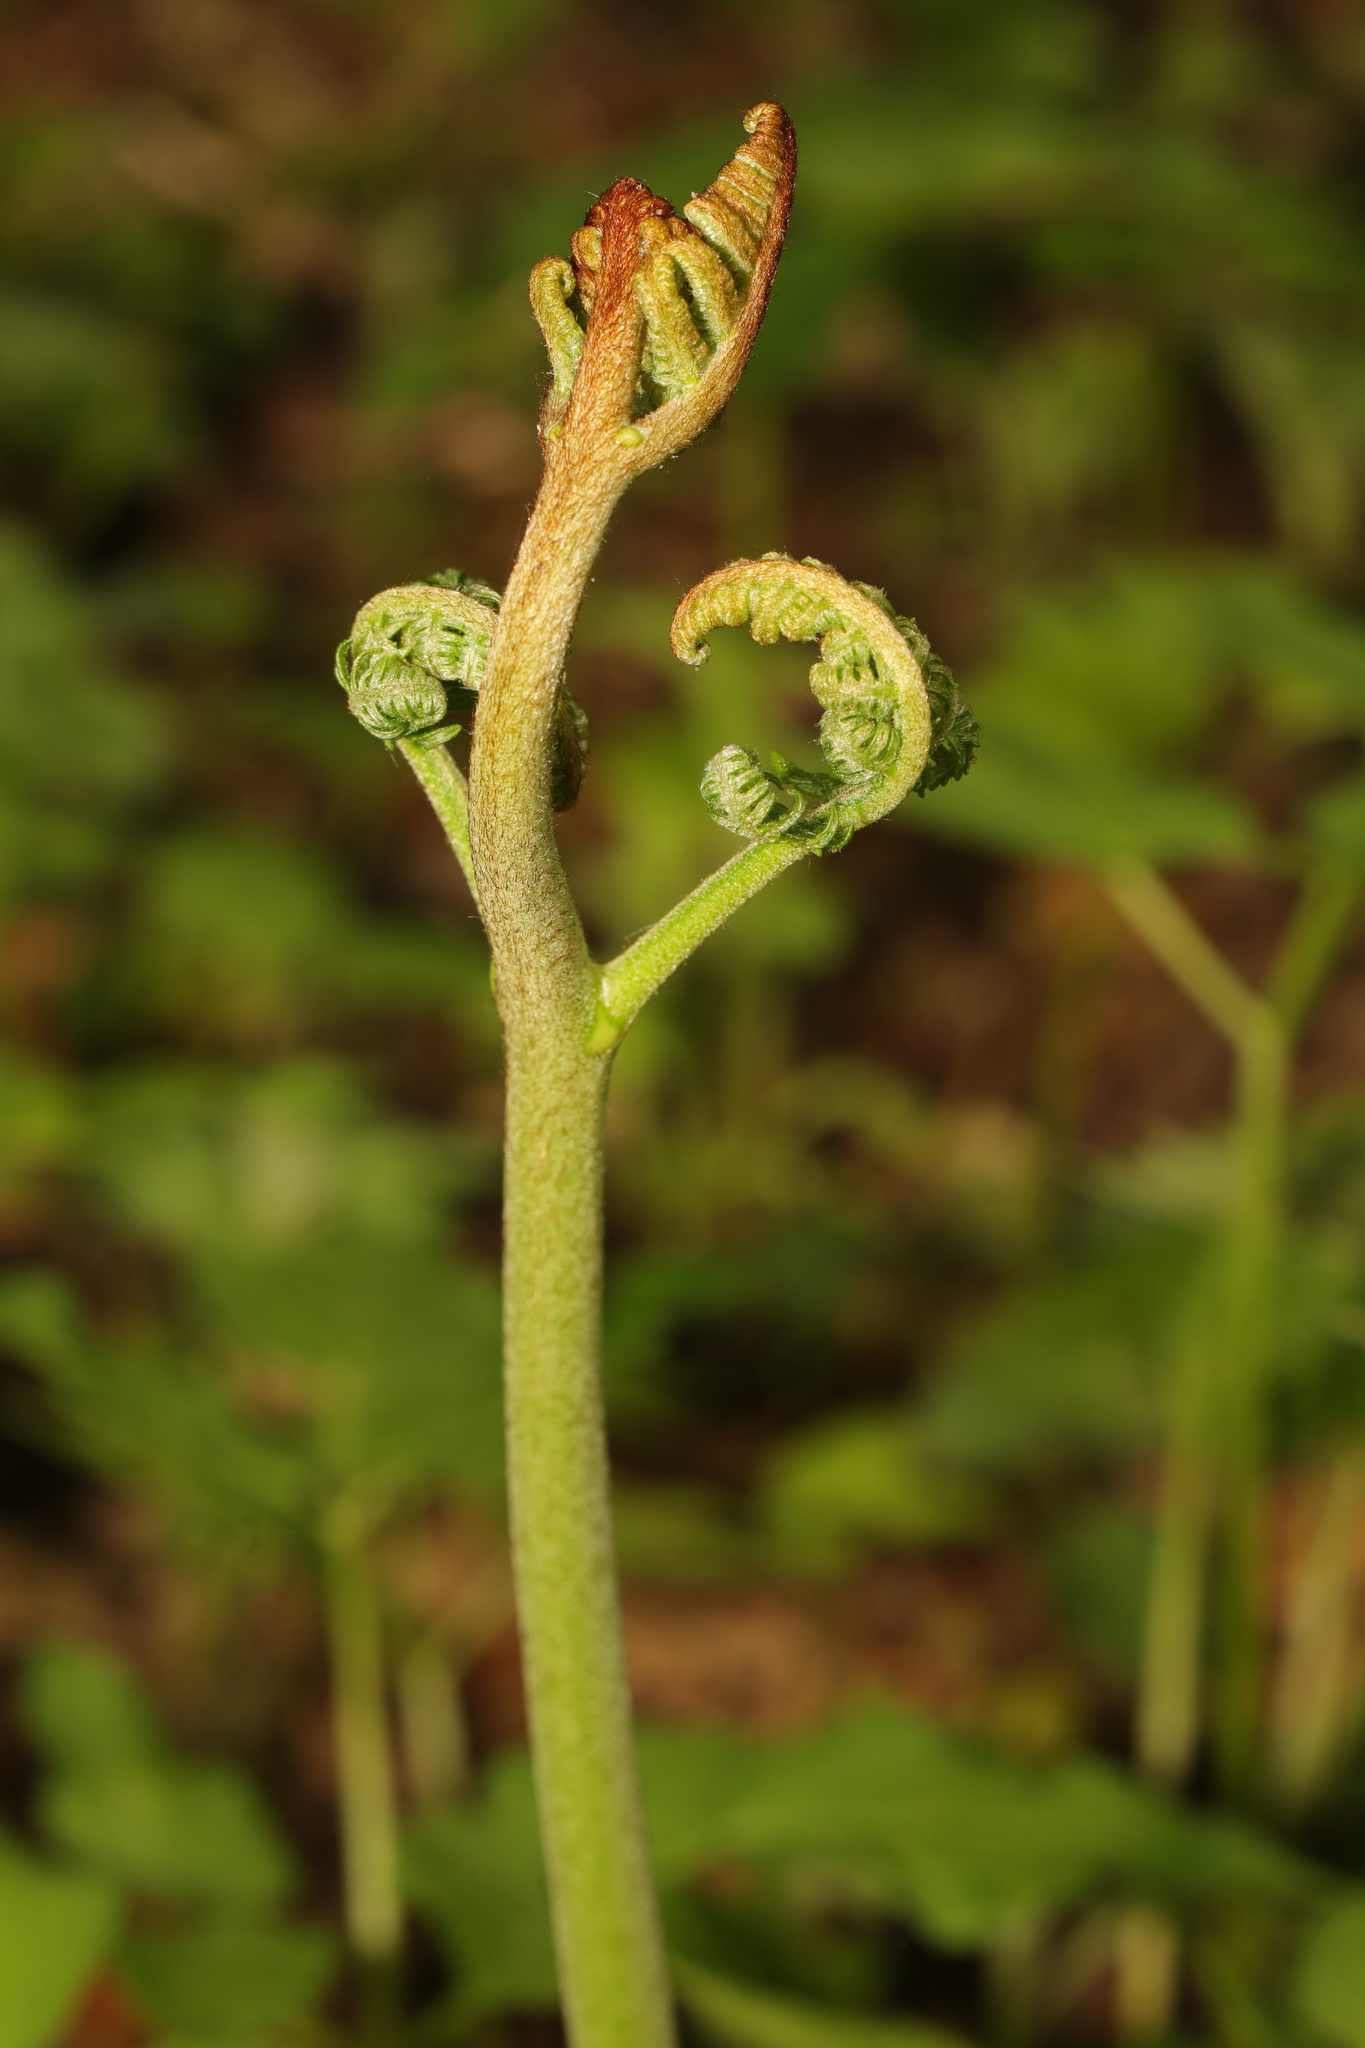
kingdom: Plantae
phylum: Tracheophyta
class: Polypodiopsida
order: Polypodiales
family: Dennstaedtiaceae
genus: Pteridium
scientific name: Pteridium aquilinum
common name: Bracken
